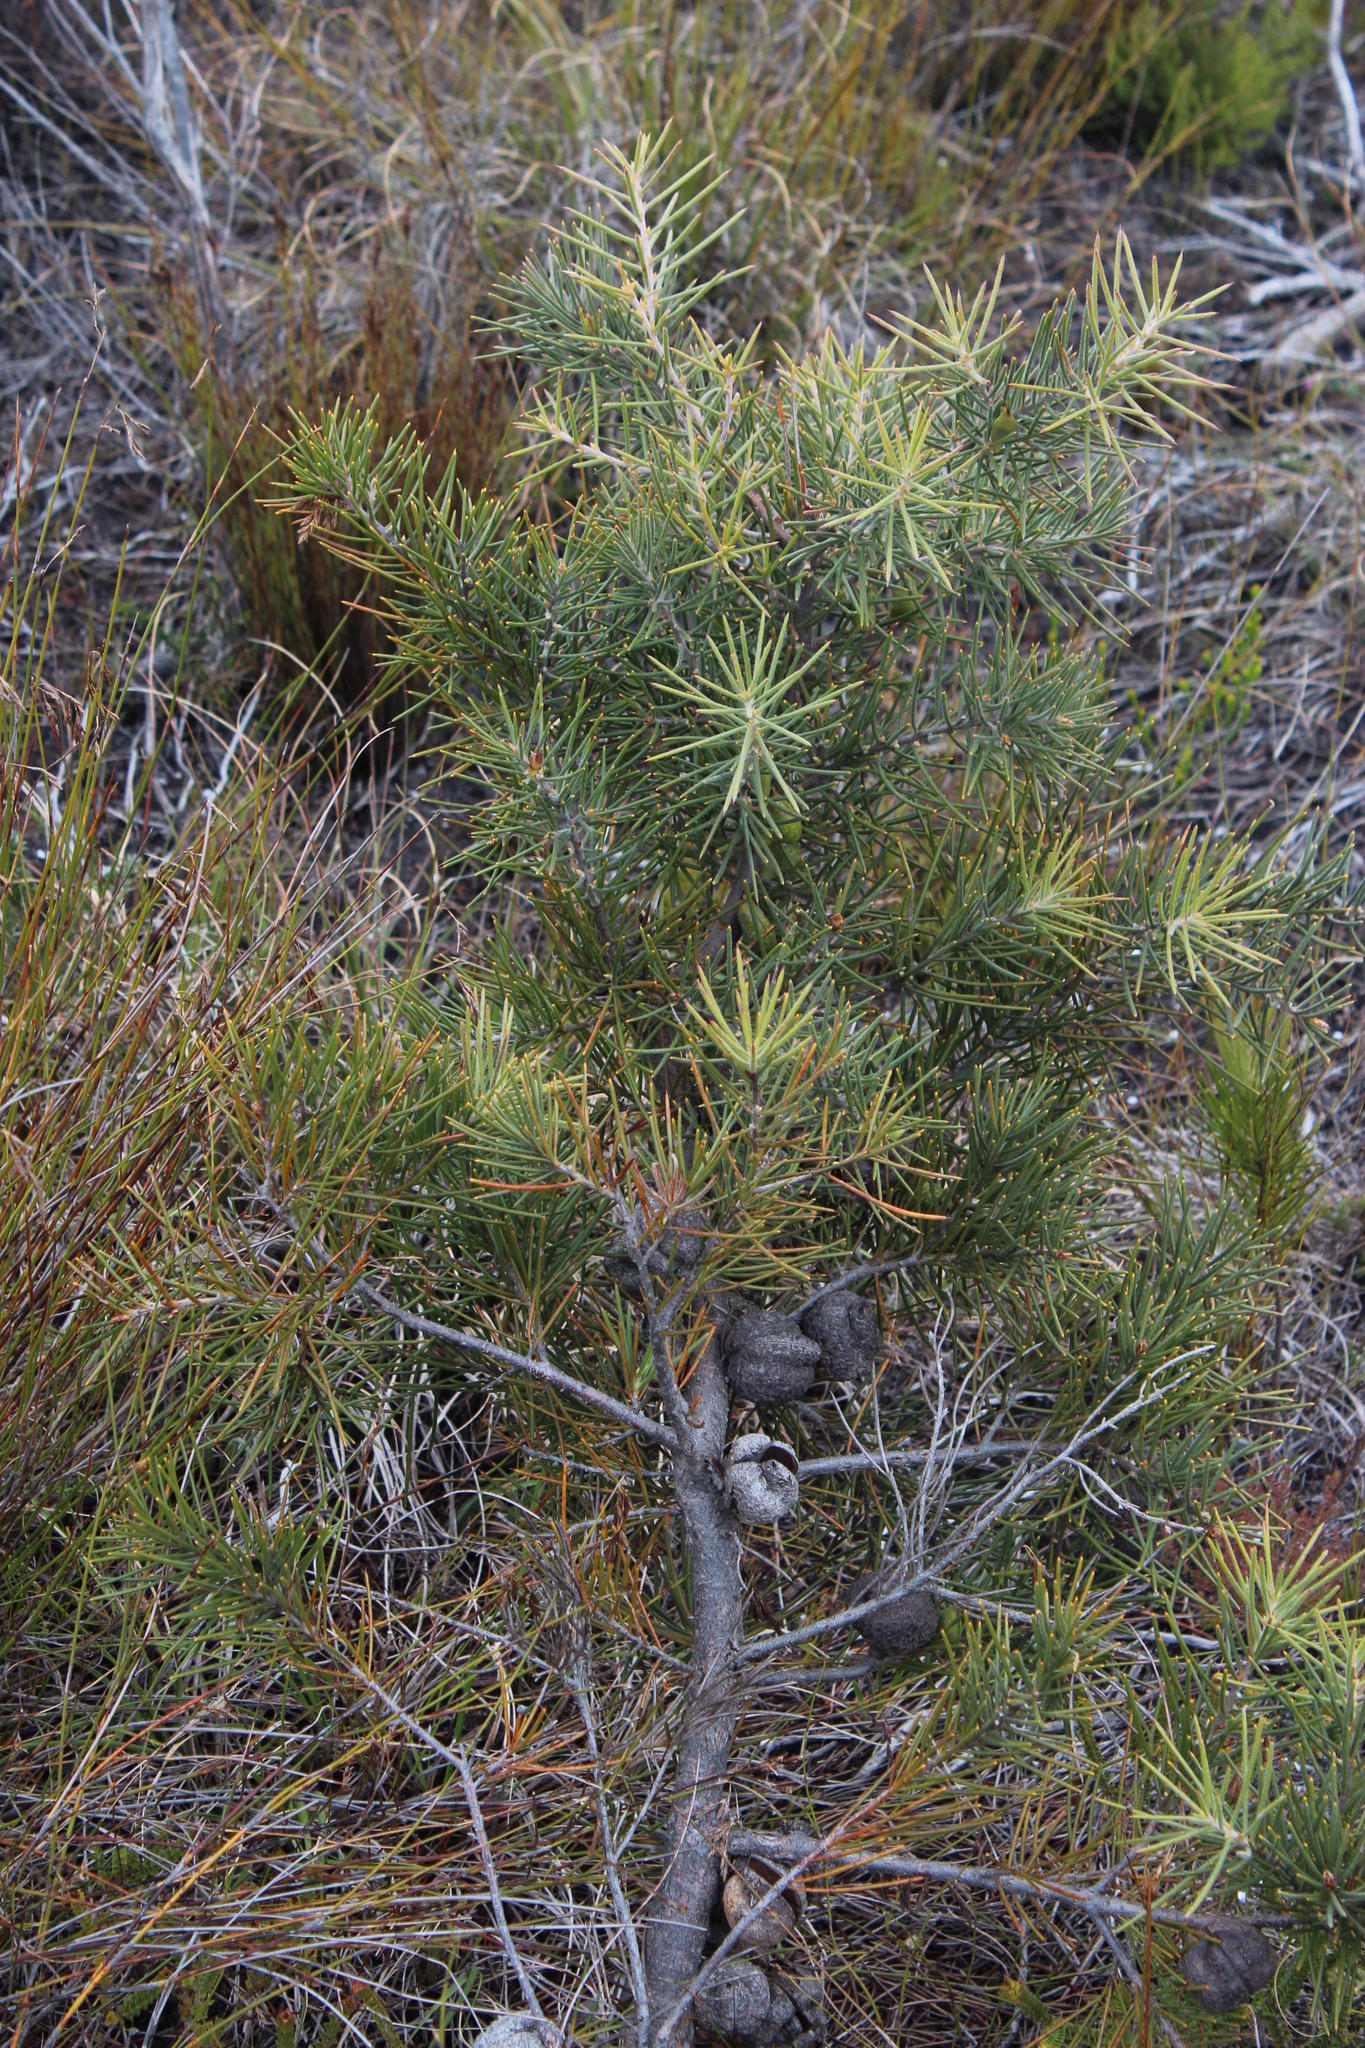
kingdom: Plantae
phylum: Tracheophyta
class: Magnoliopsida
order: Proteales
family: Proteaceae
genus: Hakea
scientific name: Hakea gibbosa
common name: Rock hakea
